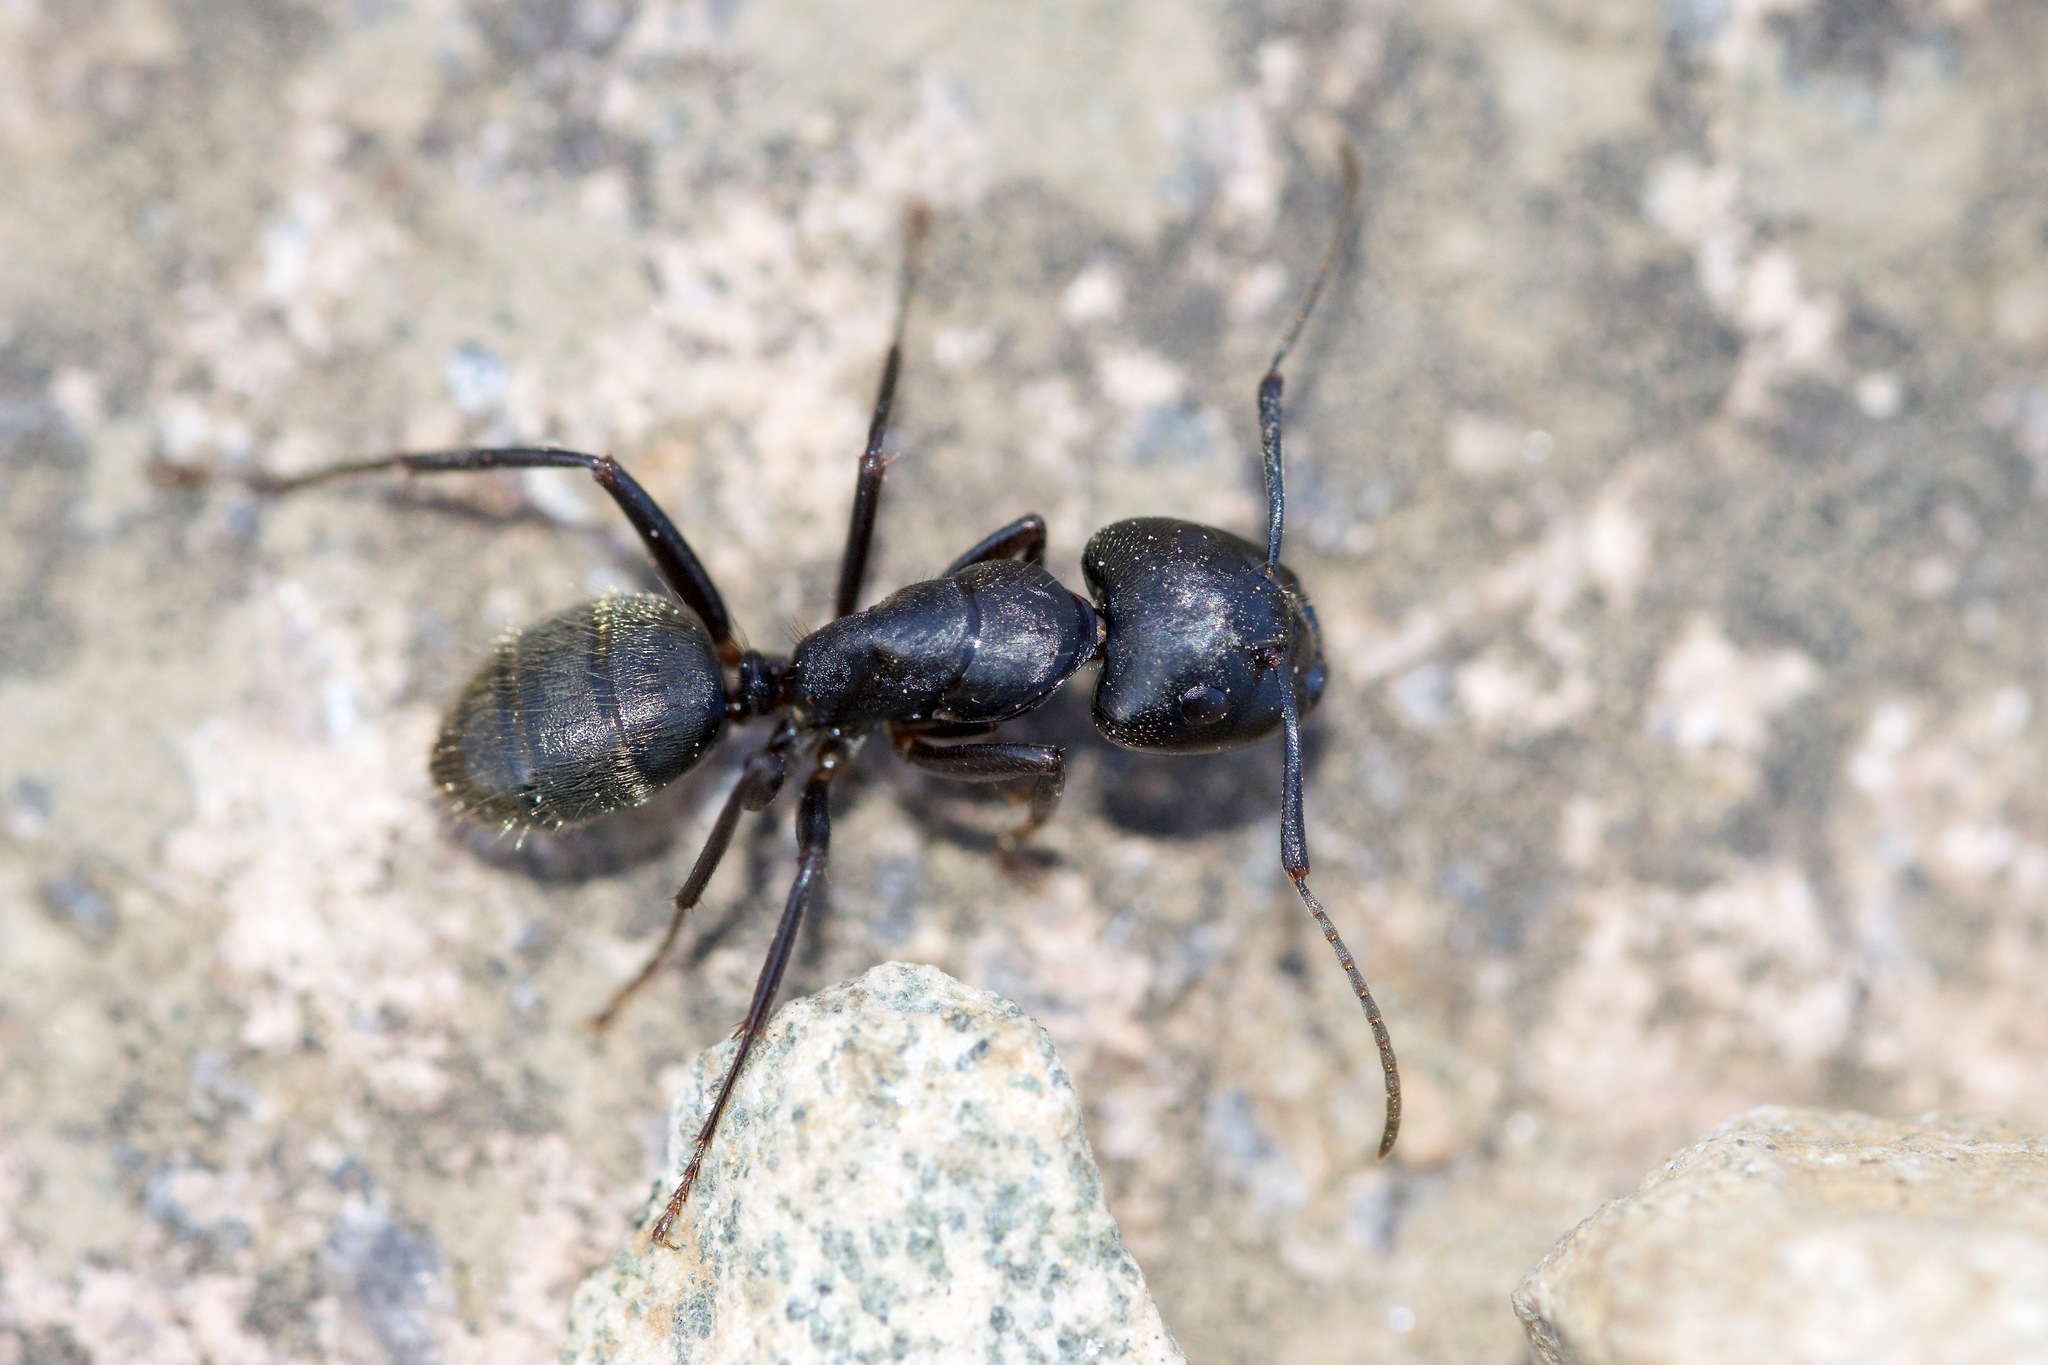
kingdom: Animalia
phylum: Arthropoda
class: Insecta
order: Hymenoptera
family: Formicidae
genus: Camponotus
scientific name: Camponotus pennsylvanicus
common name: Black carpenter ant
